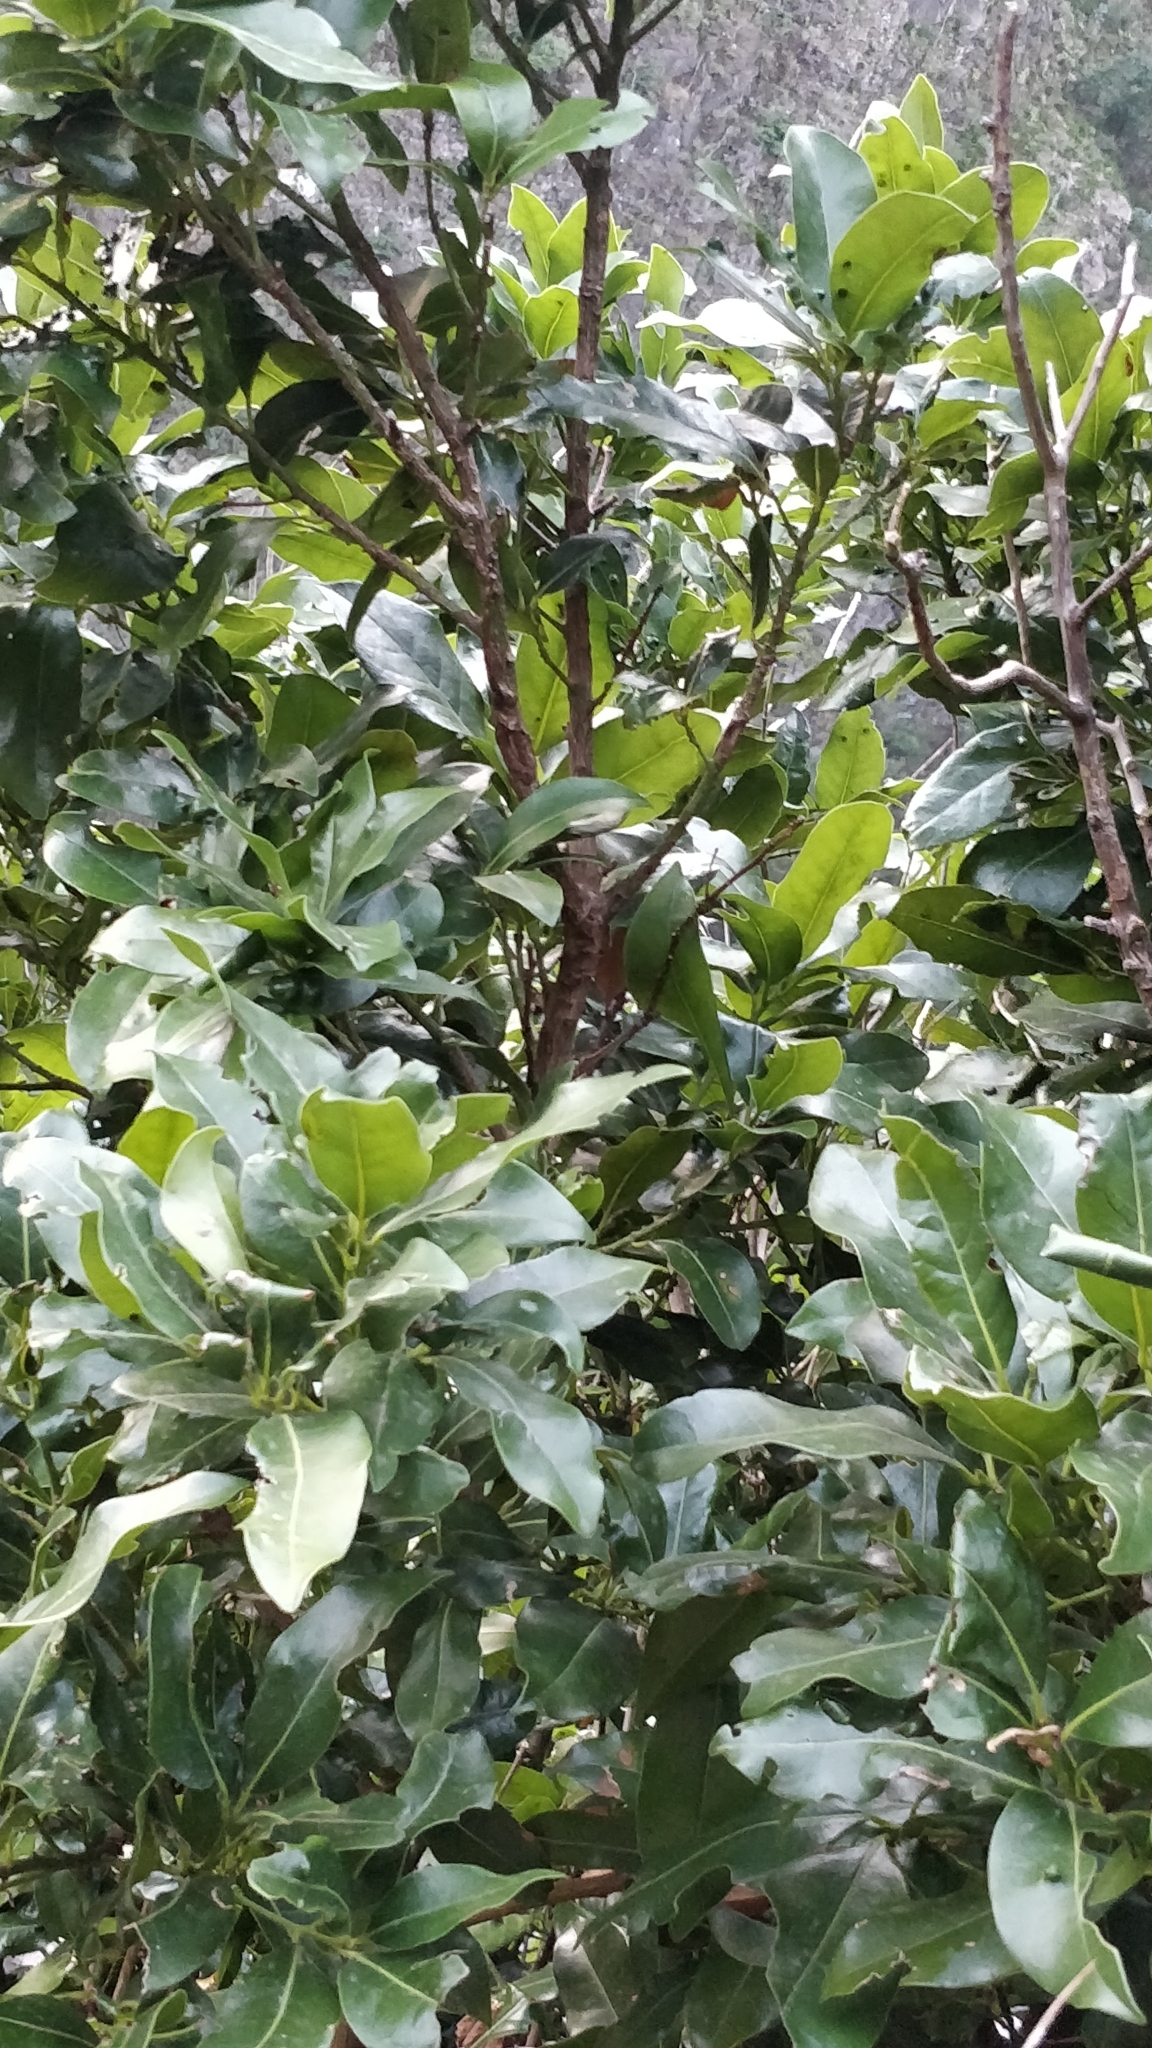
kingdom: Plantae
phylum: Tracheophyta
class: Magnoliopsida
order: Laurales
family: Lauraceae
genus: Apollonias
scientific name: Apollonias barbujana
